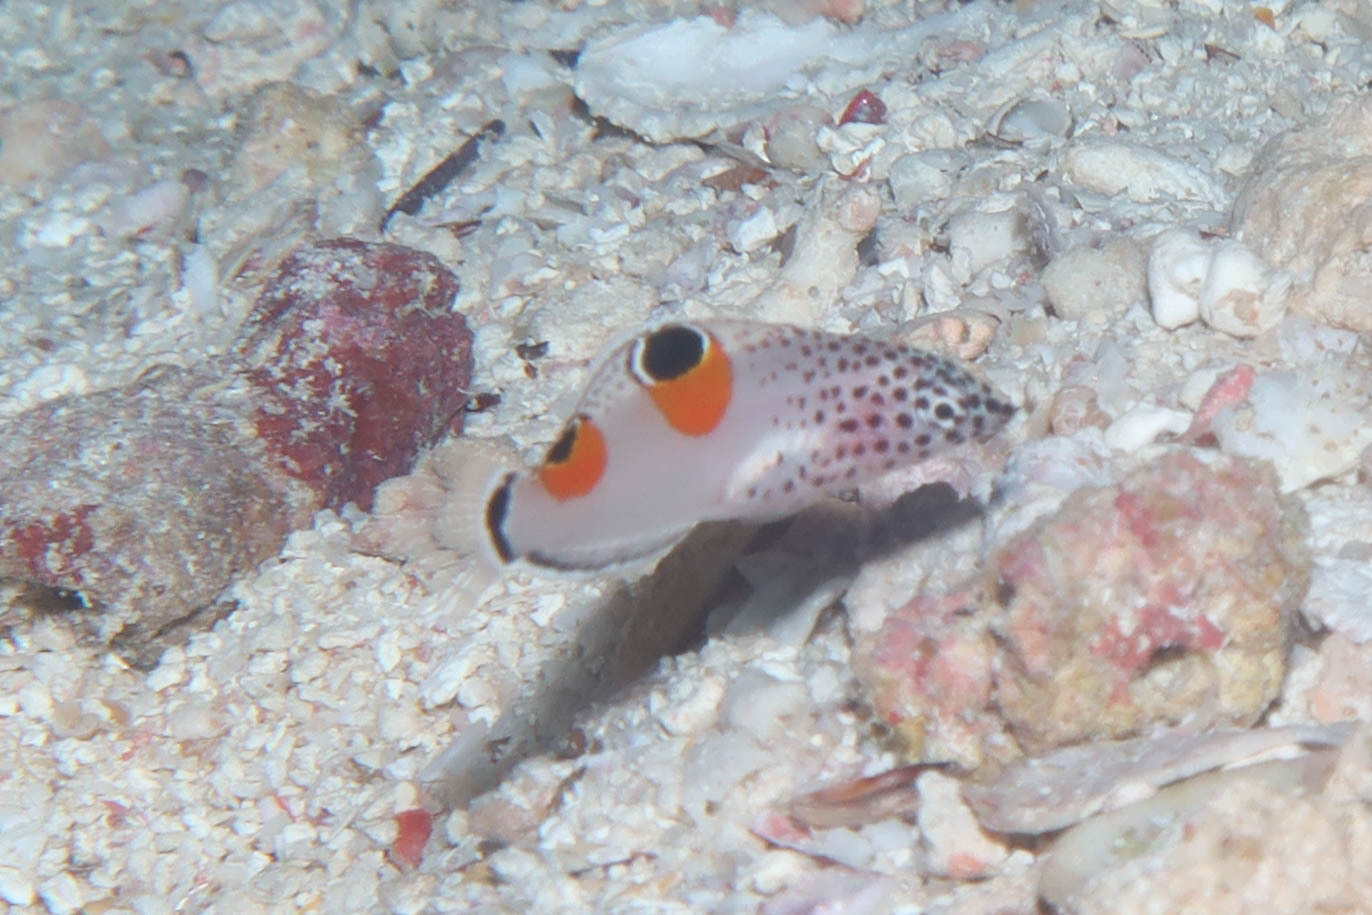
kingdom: Animalia
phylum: Chordata
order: Perciformes
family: Labridae
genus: Coris
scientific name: Coris aygula
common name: Clown coris
